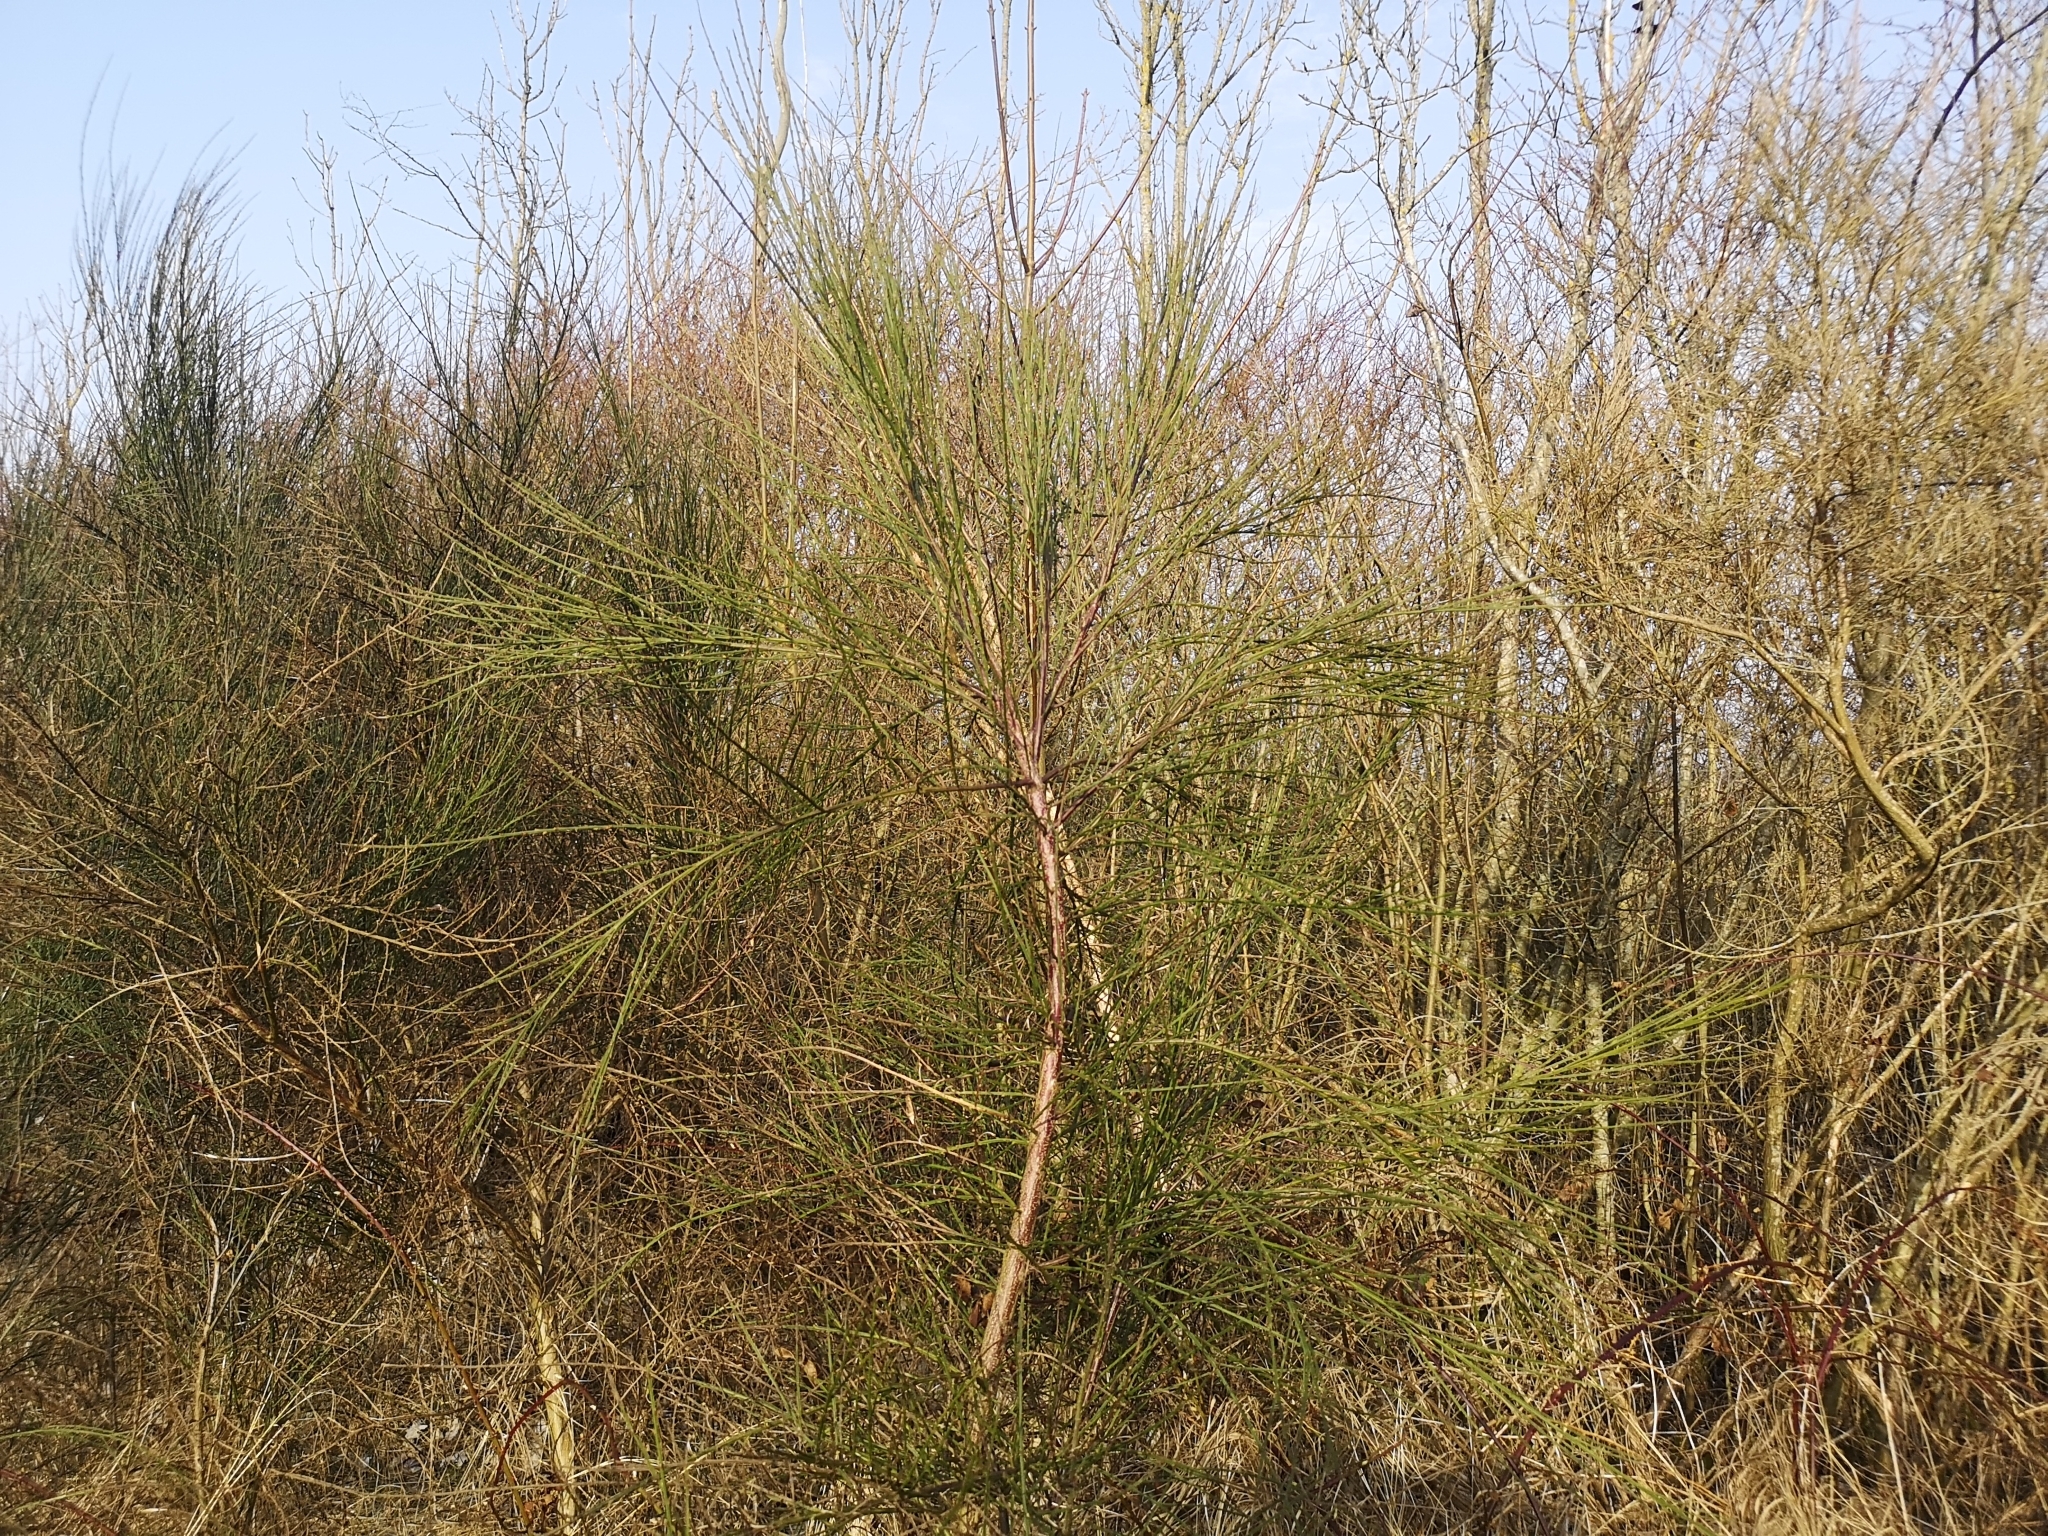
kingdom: Plantae
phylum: Tracheophyta
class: Magnoliopsida
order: Fabales
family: Fabaceae
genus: Cytisus
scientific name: Cytisus scoparius
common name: Scotch broom
